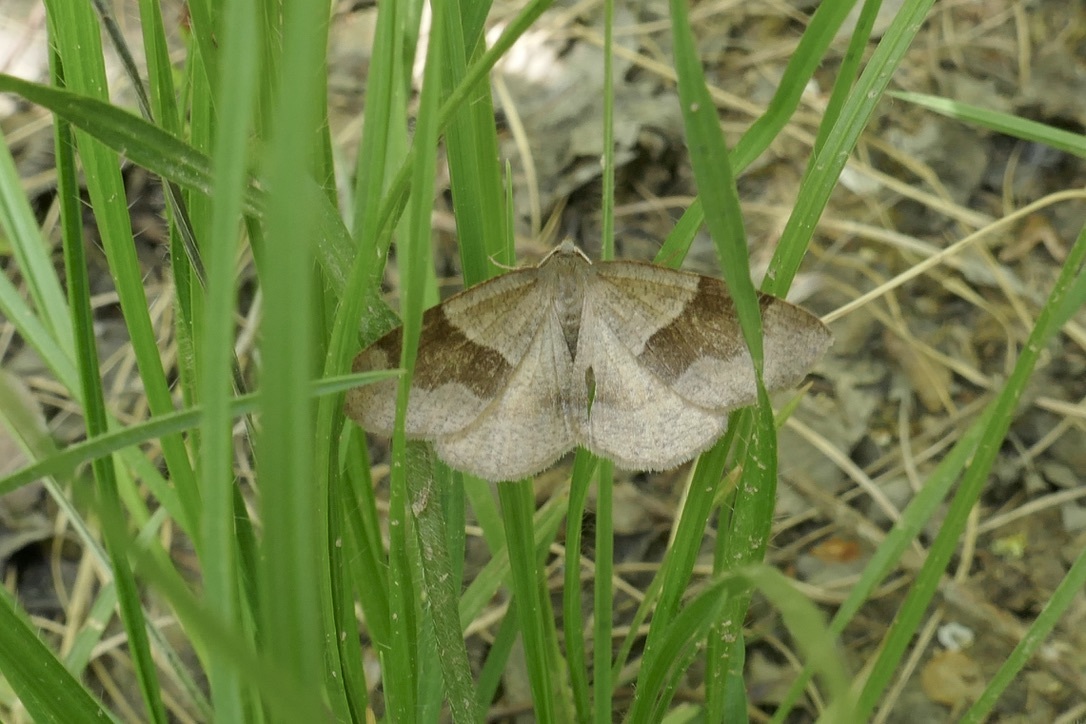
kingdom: Animalia
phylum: Arthropoda
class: Insecta
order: Lepidoptera
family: Geometridae
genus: Plagodis
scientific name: Plagodis pulveraria
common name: Barred umber
